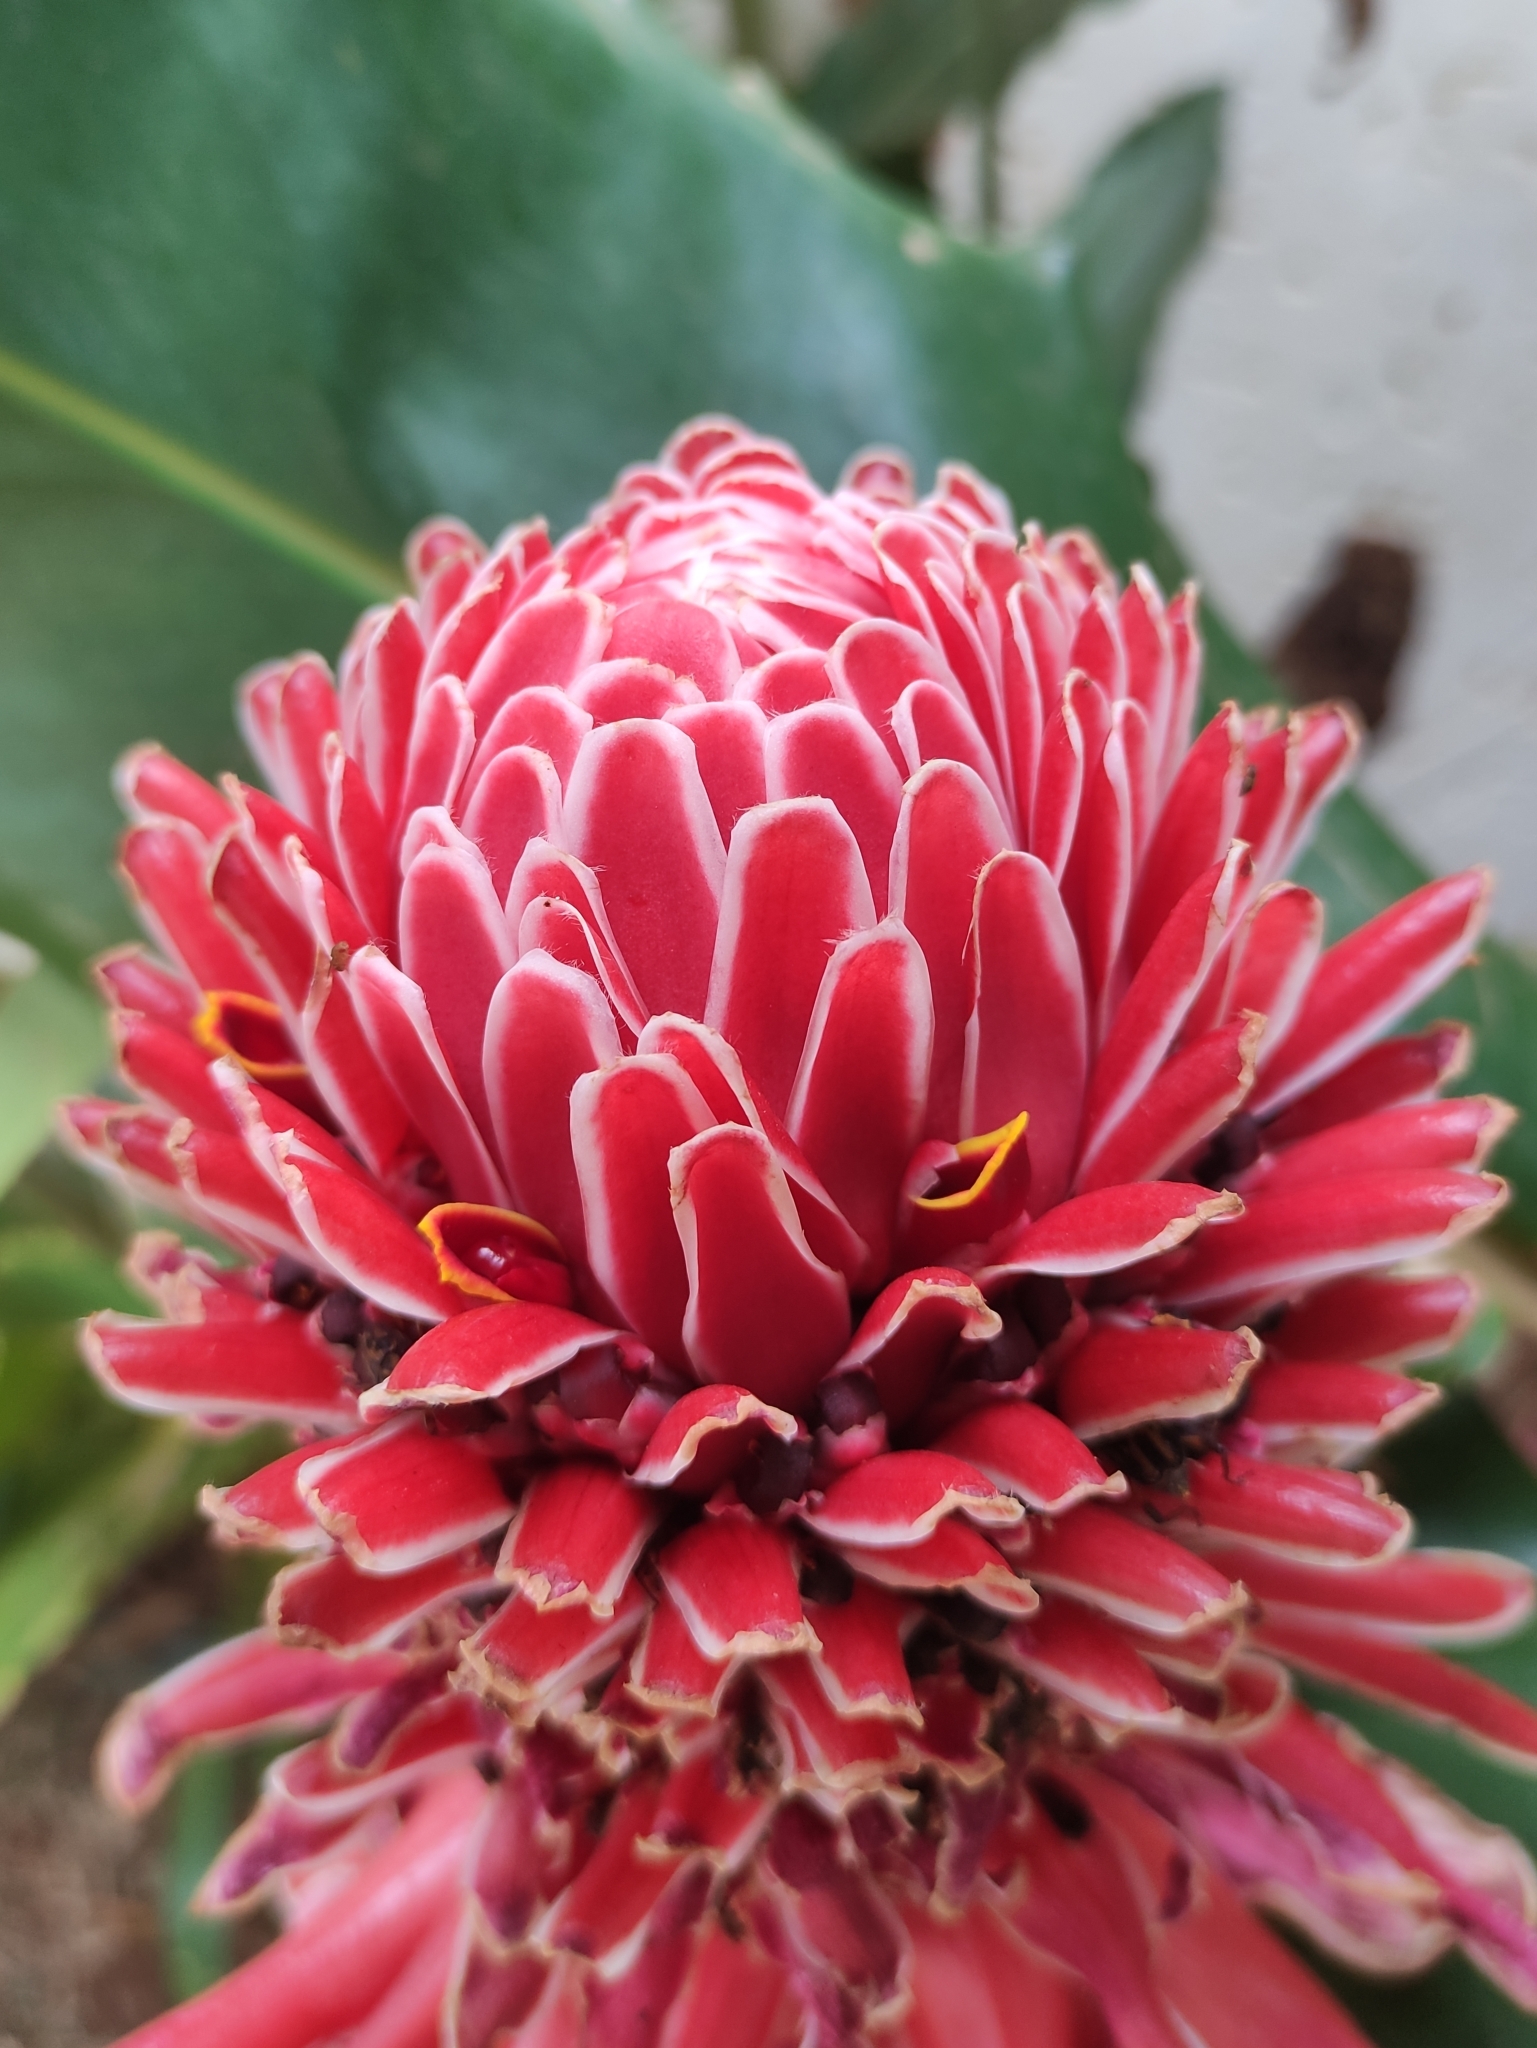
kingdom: Plantae
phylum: Tracheophyta
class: Liliopsida
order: Zingiberales
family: Zingiberaceae
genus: Etlingera
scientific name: Etlingera elatior
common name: Philippine waxflower
